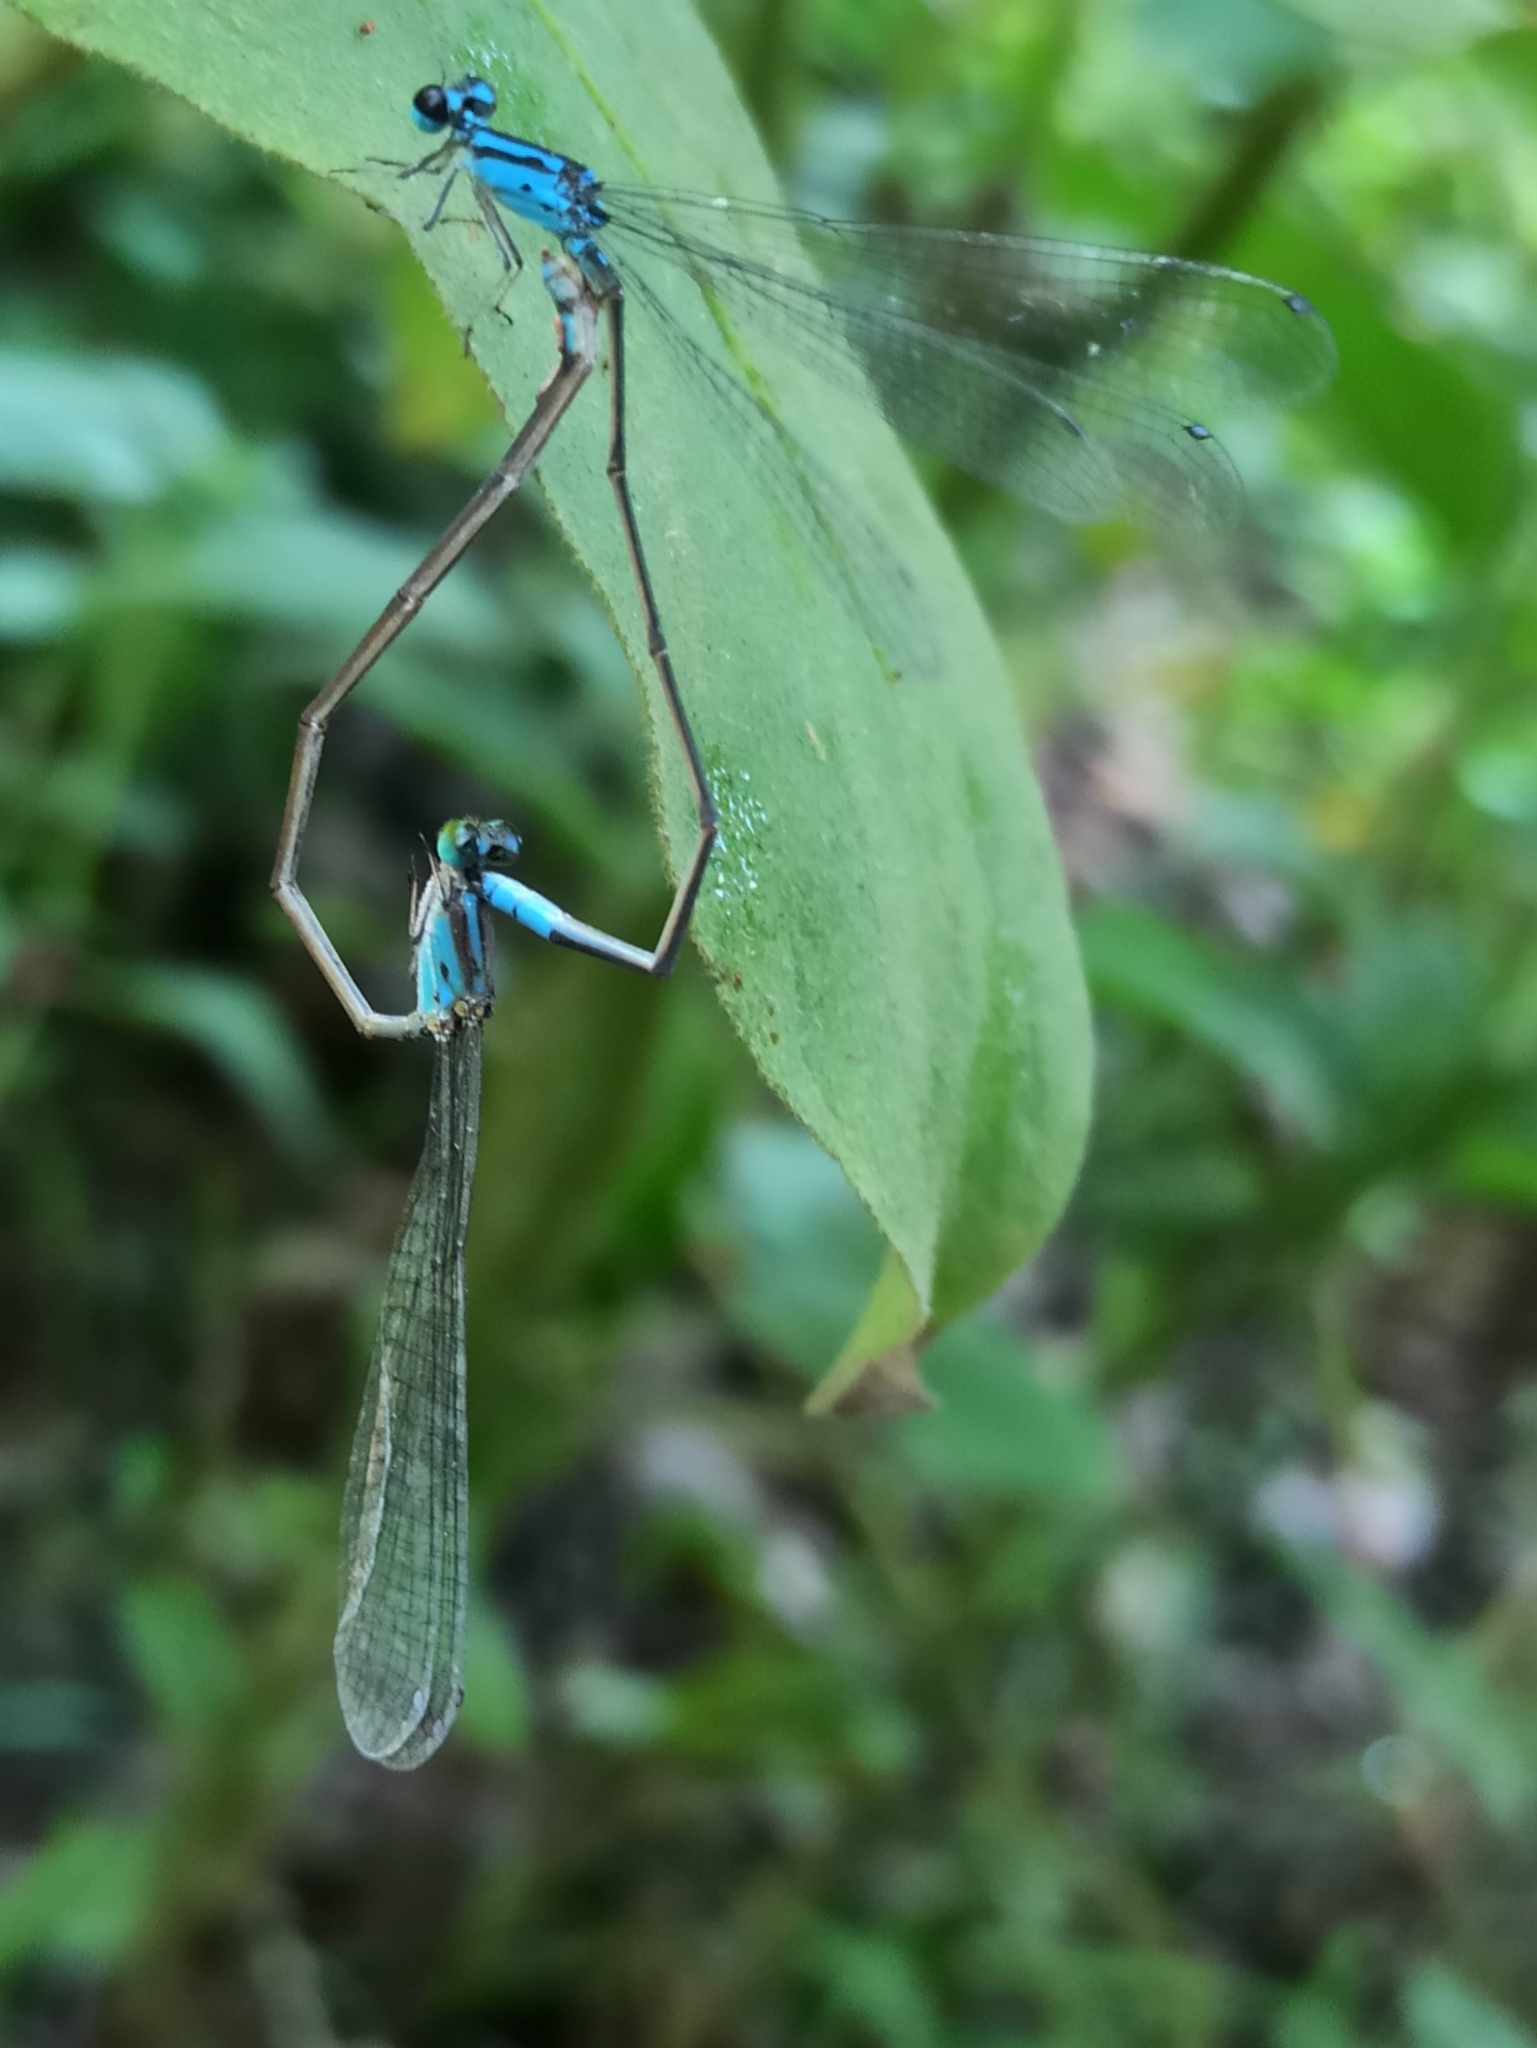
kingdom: Animalia
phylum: Arthropoda
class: Insecta
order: Odonata
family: Coenagrionidae
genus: Archibasis
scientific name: Archibasis oscillans
